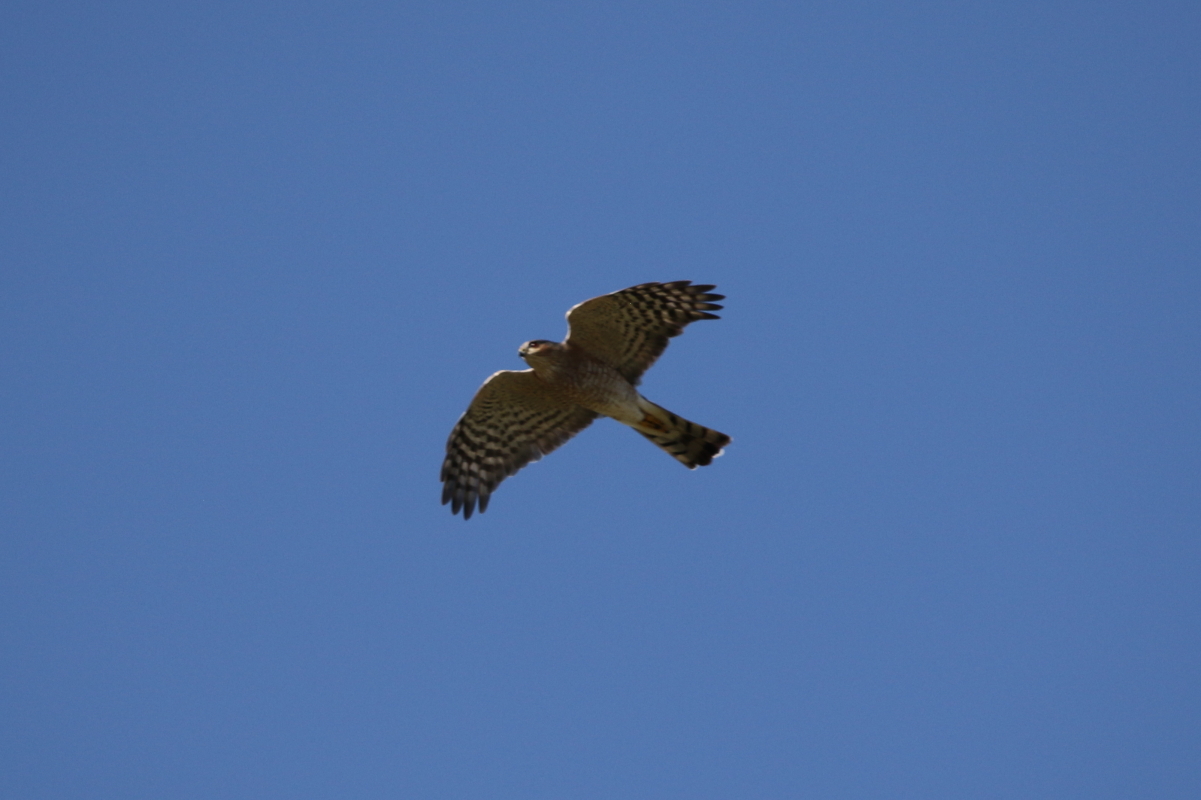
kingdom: Animalia
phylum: Chordata
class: Aves
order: Accipitriformes
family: Accipitridae
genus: Accipiter
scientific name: Accipiter striatus
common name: Sharp-shinned hawk
